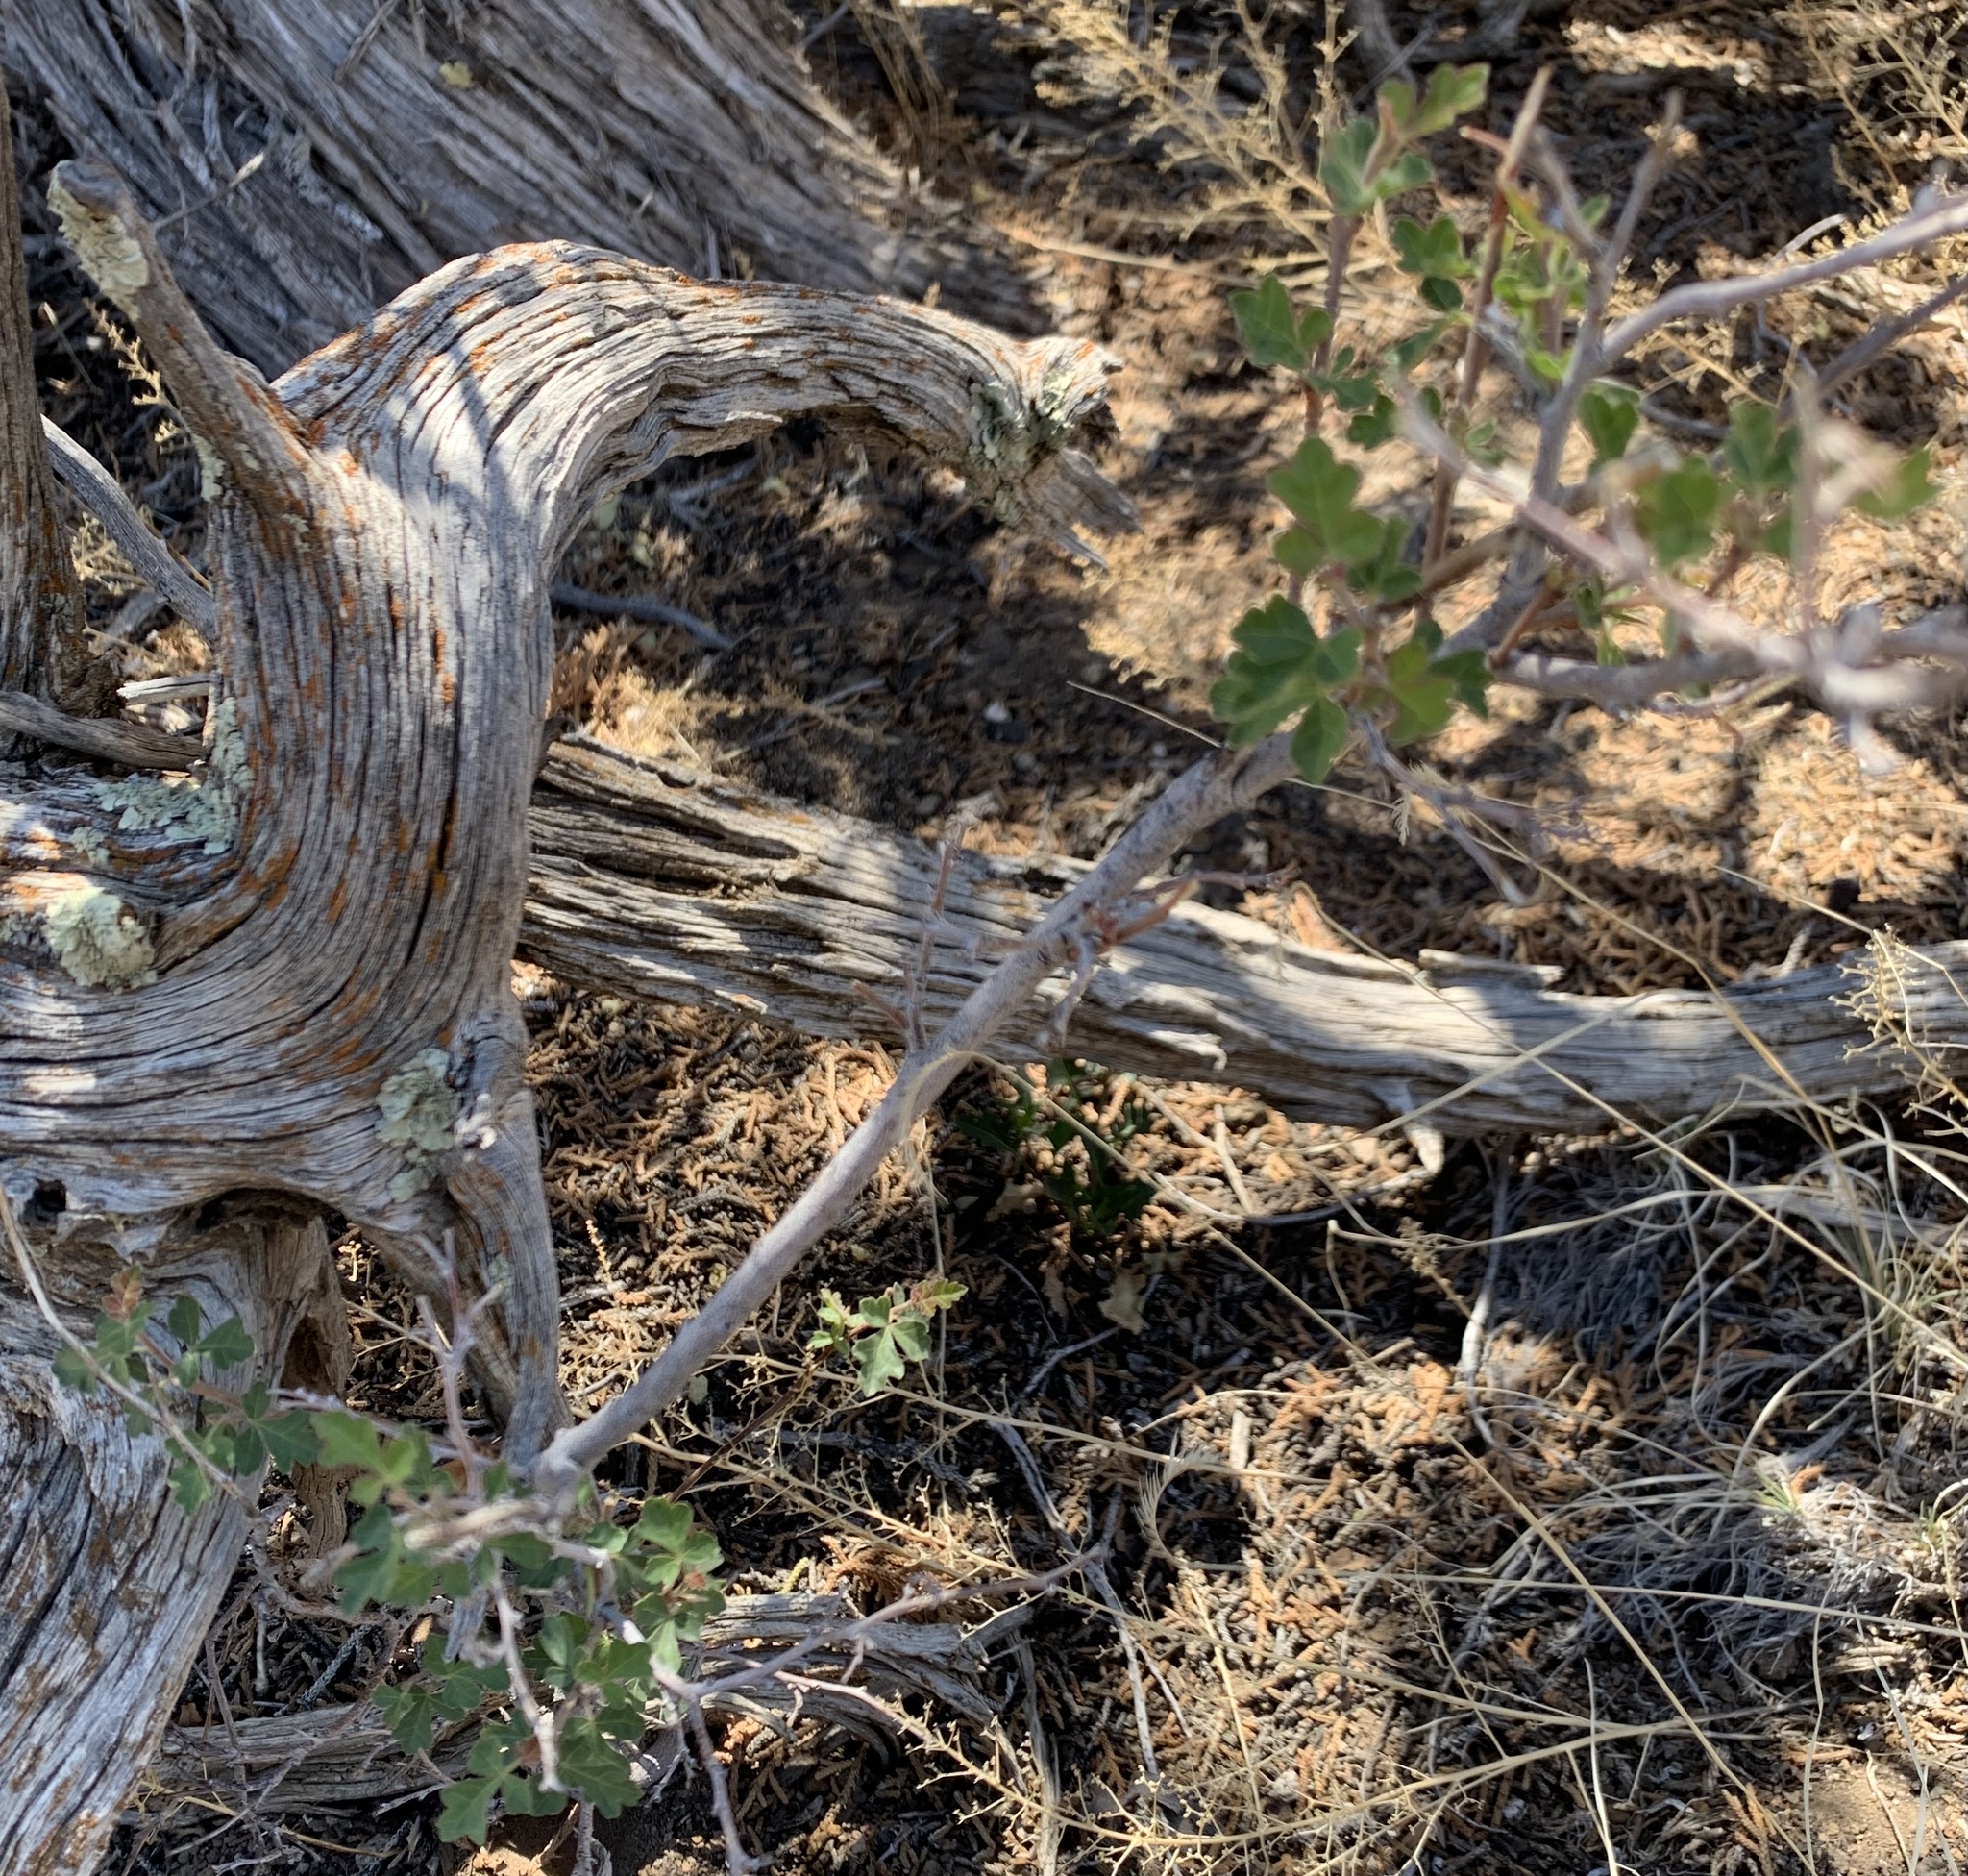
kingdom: Plantae
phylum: Tracheophyta
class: Magnoliopsida
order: Sapindales
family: Anacardiaceae
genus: Rhus
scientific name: Rhus trilobata
